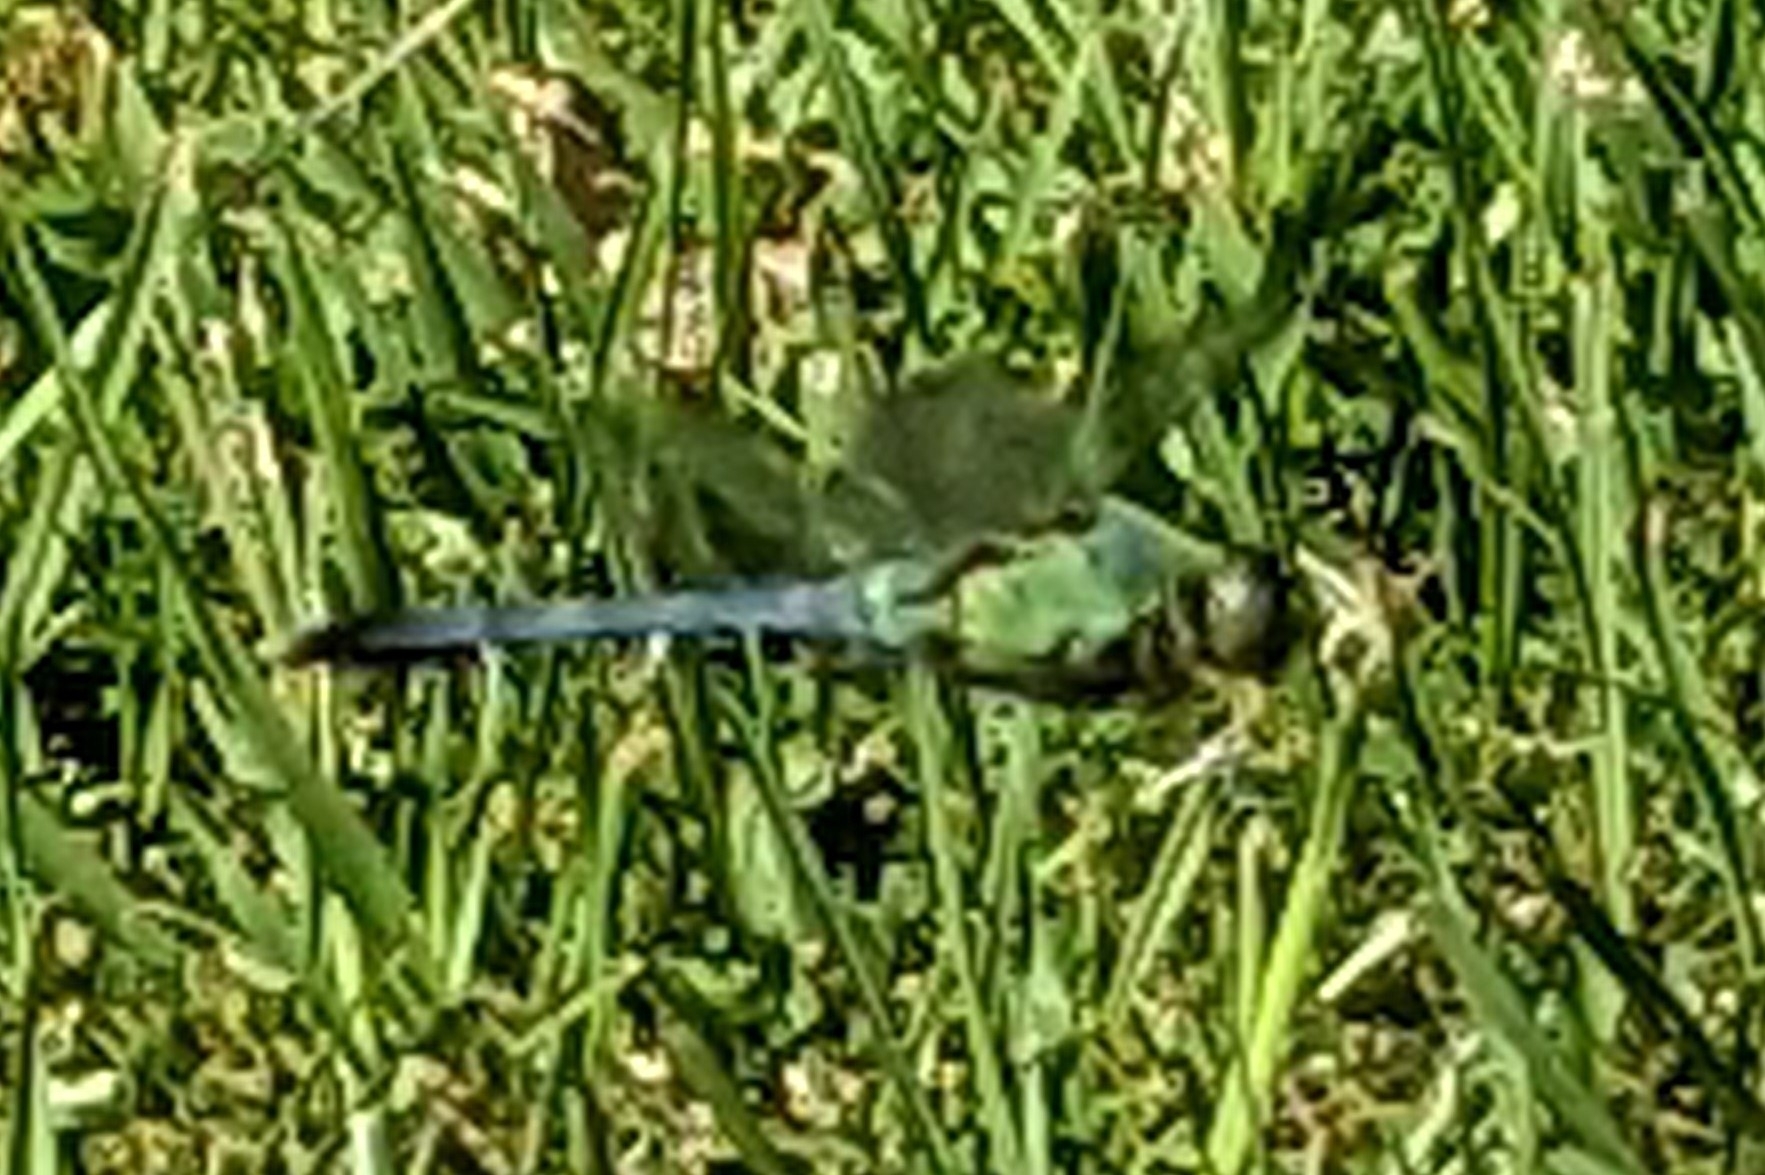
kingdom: Animalia
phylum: Arthropoda
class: Insecta
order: Odonata
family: Libellulidae
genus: Erythemis
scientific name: Erythemis simplicicollis
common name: Eastern pondhawk
